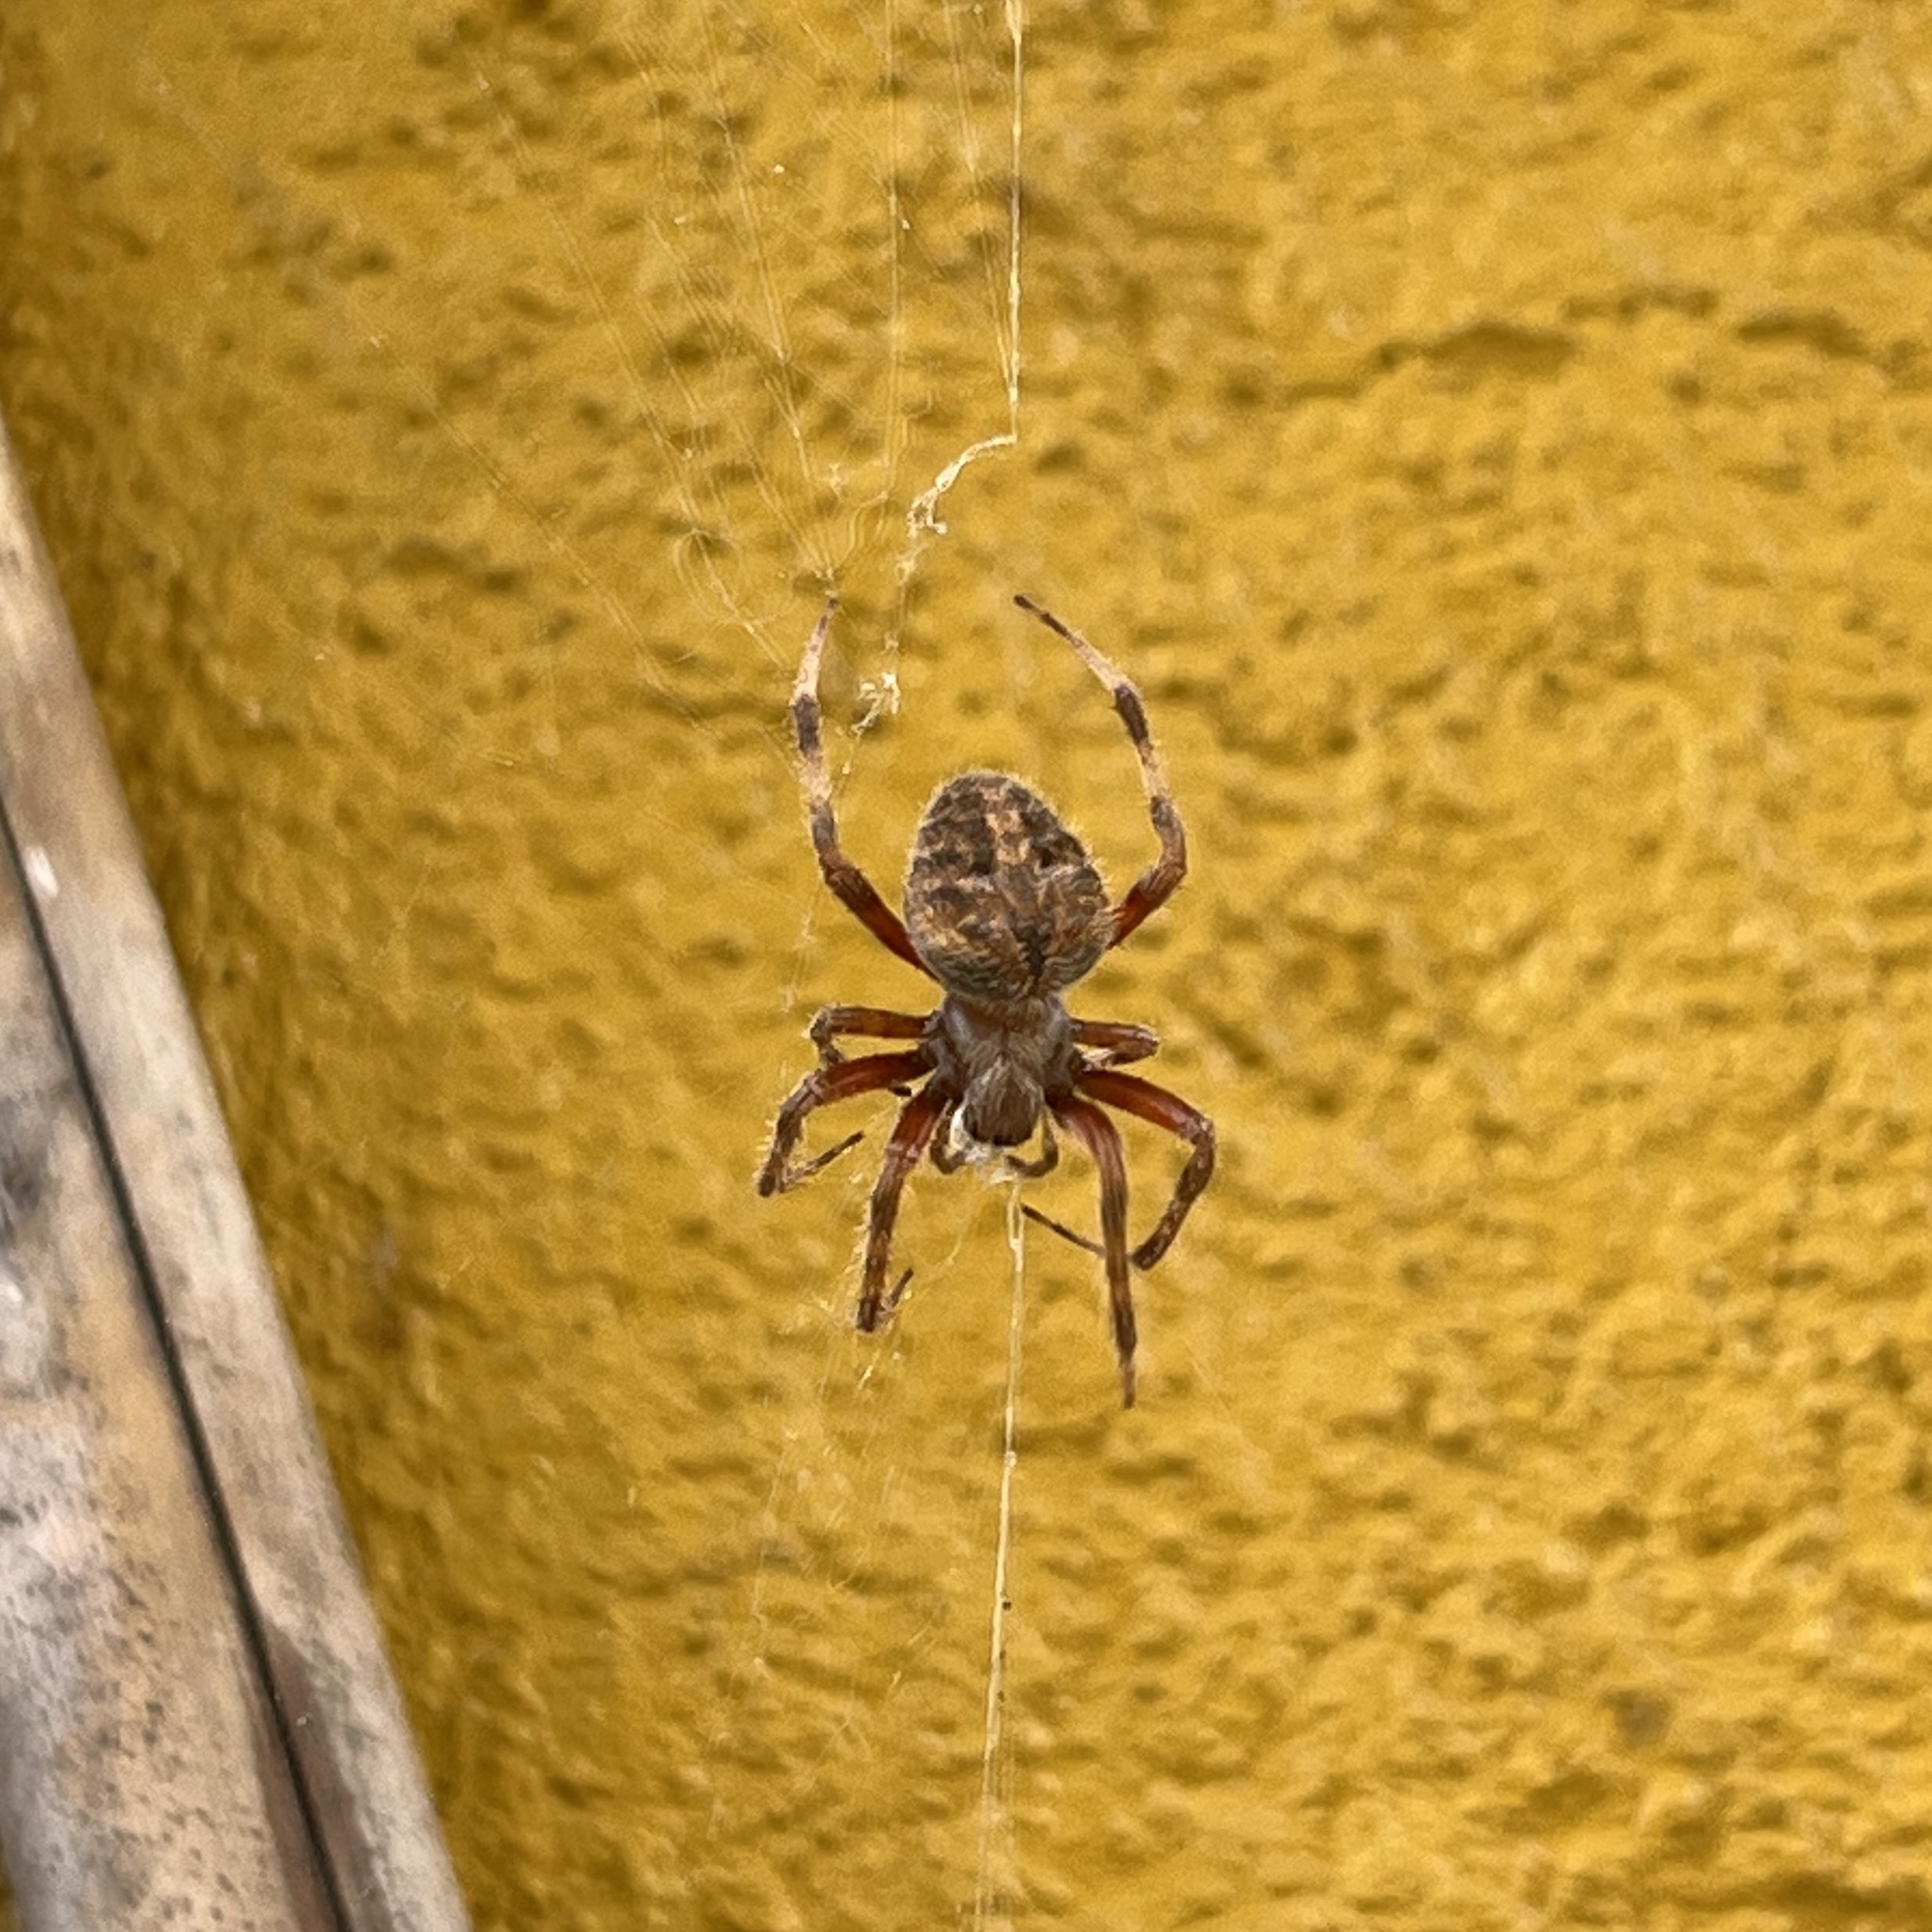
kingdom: Animalia
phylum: Arthropoda
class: Arachnida
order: Araneae
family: Araneidae
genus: Neoscona
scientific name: Neoscona crucifera
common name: Spotted orbweaver
